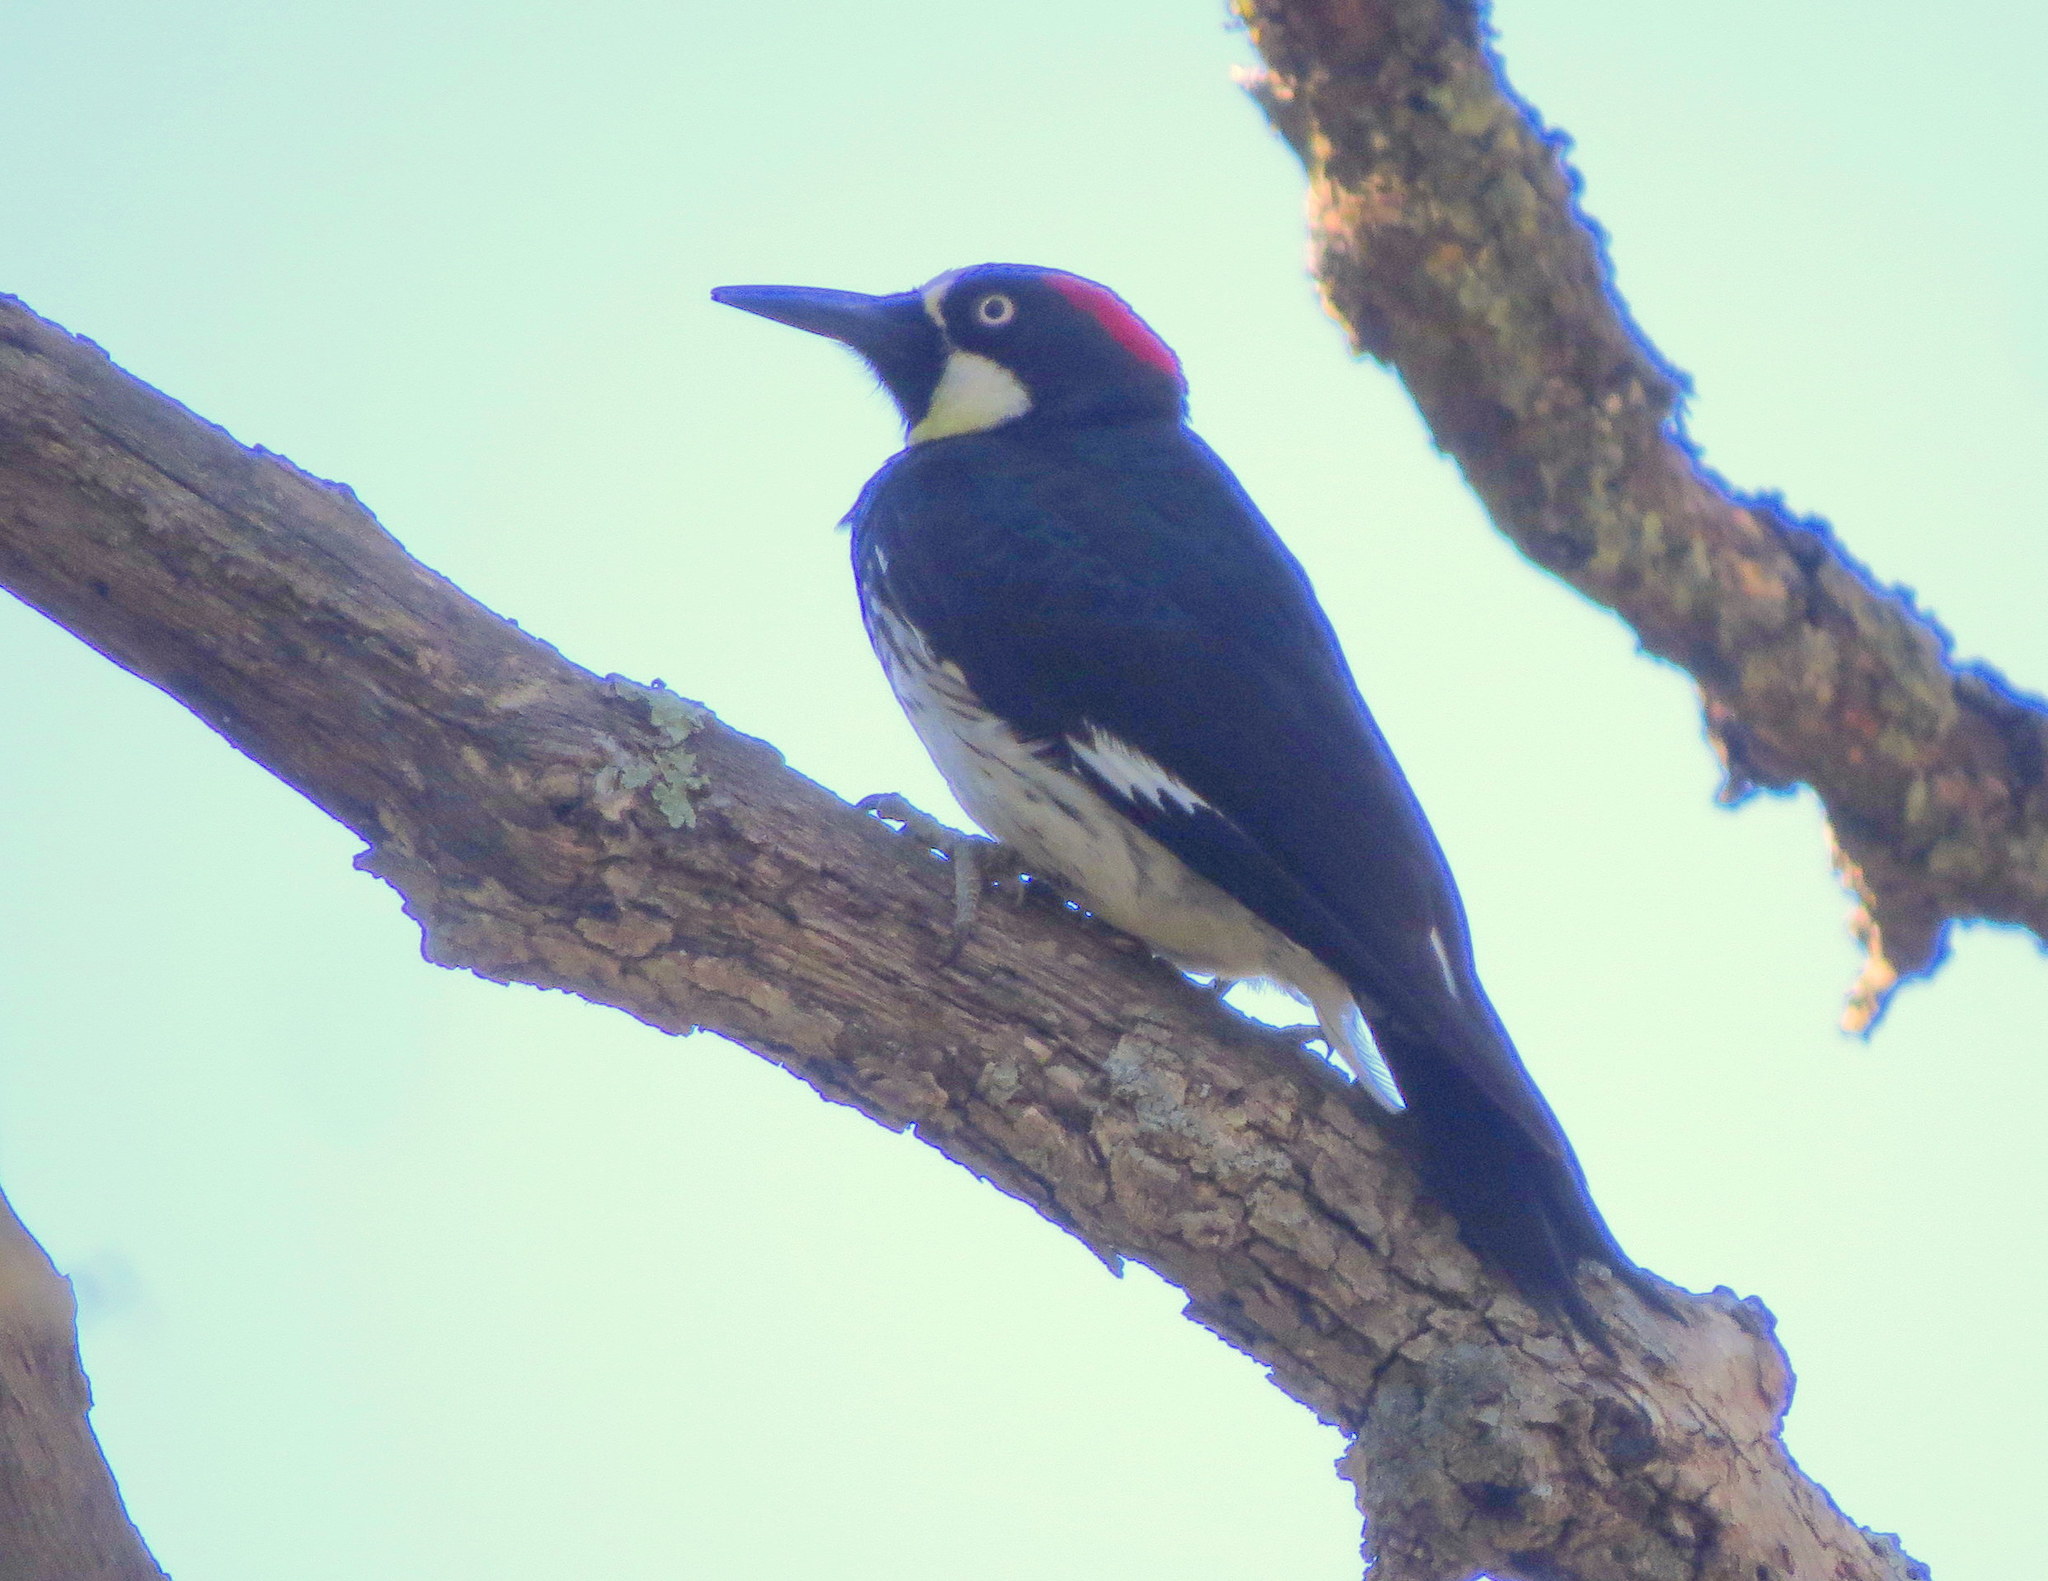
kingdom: Animalia
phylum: Chordata
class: Aves
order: Piciformes
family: Picidae
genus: Melanerpes
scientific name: Melanerpes formicivorus
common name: Acorn woodpecker
